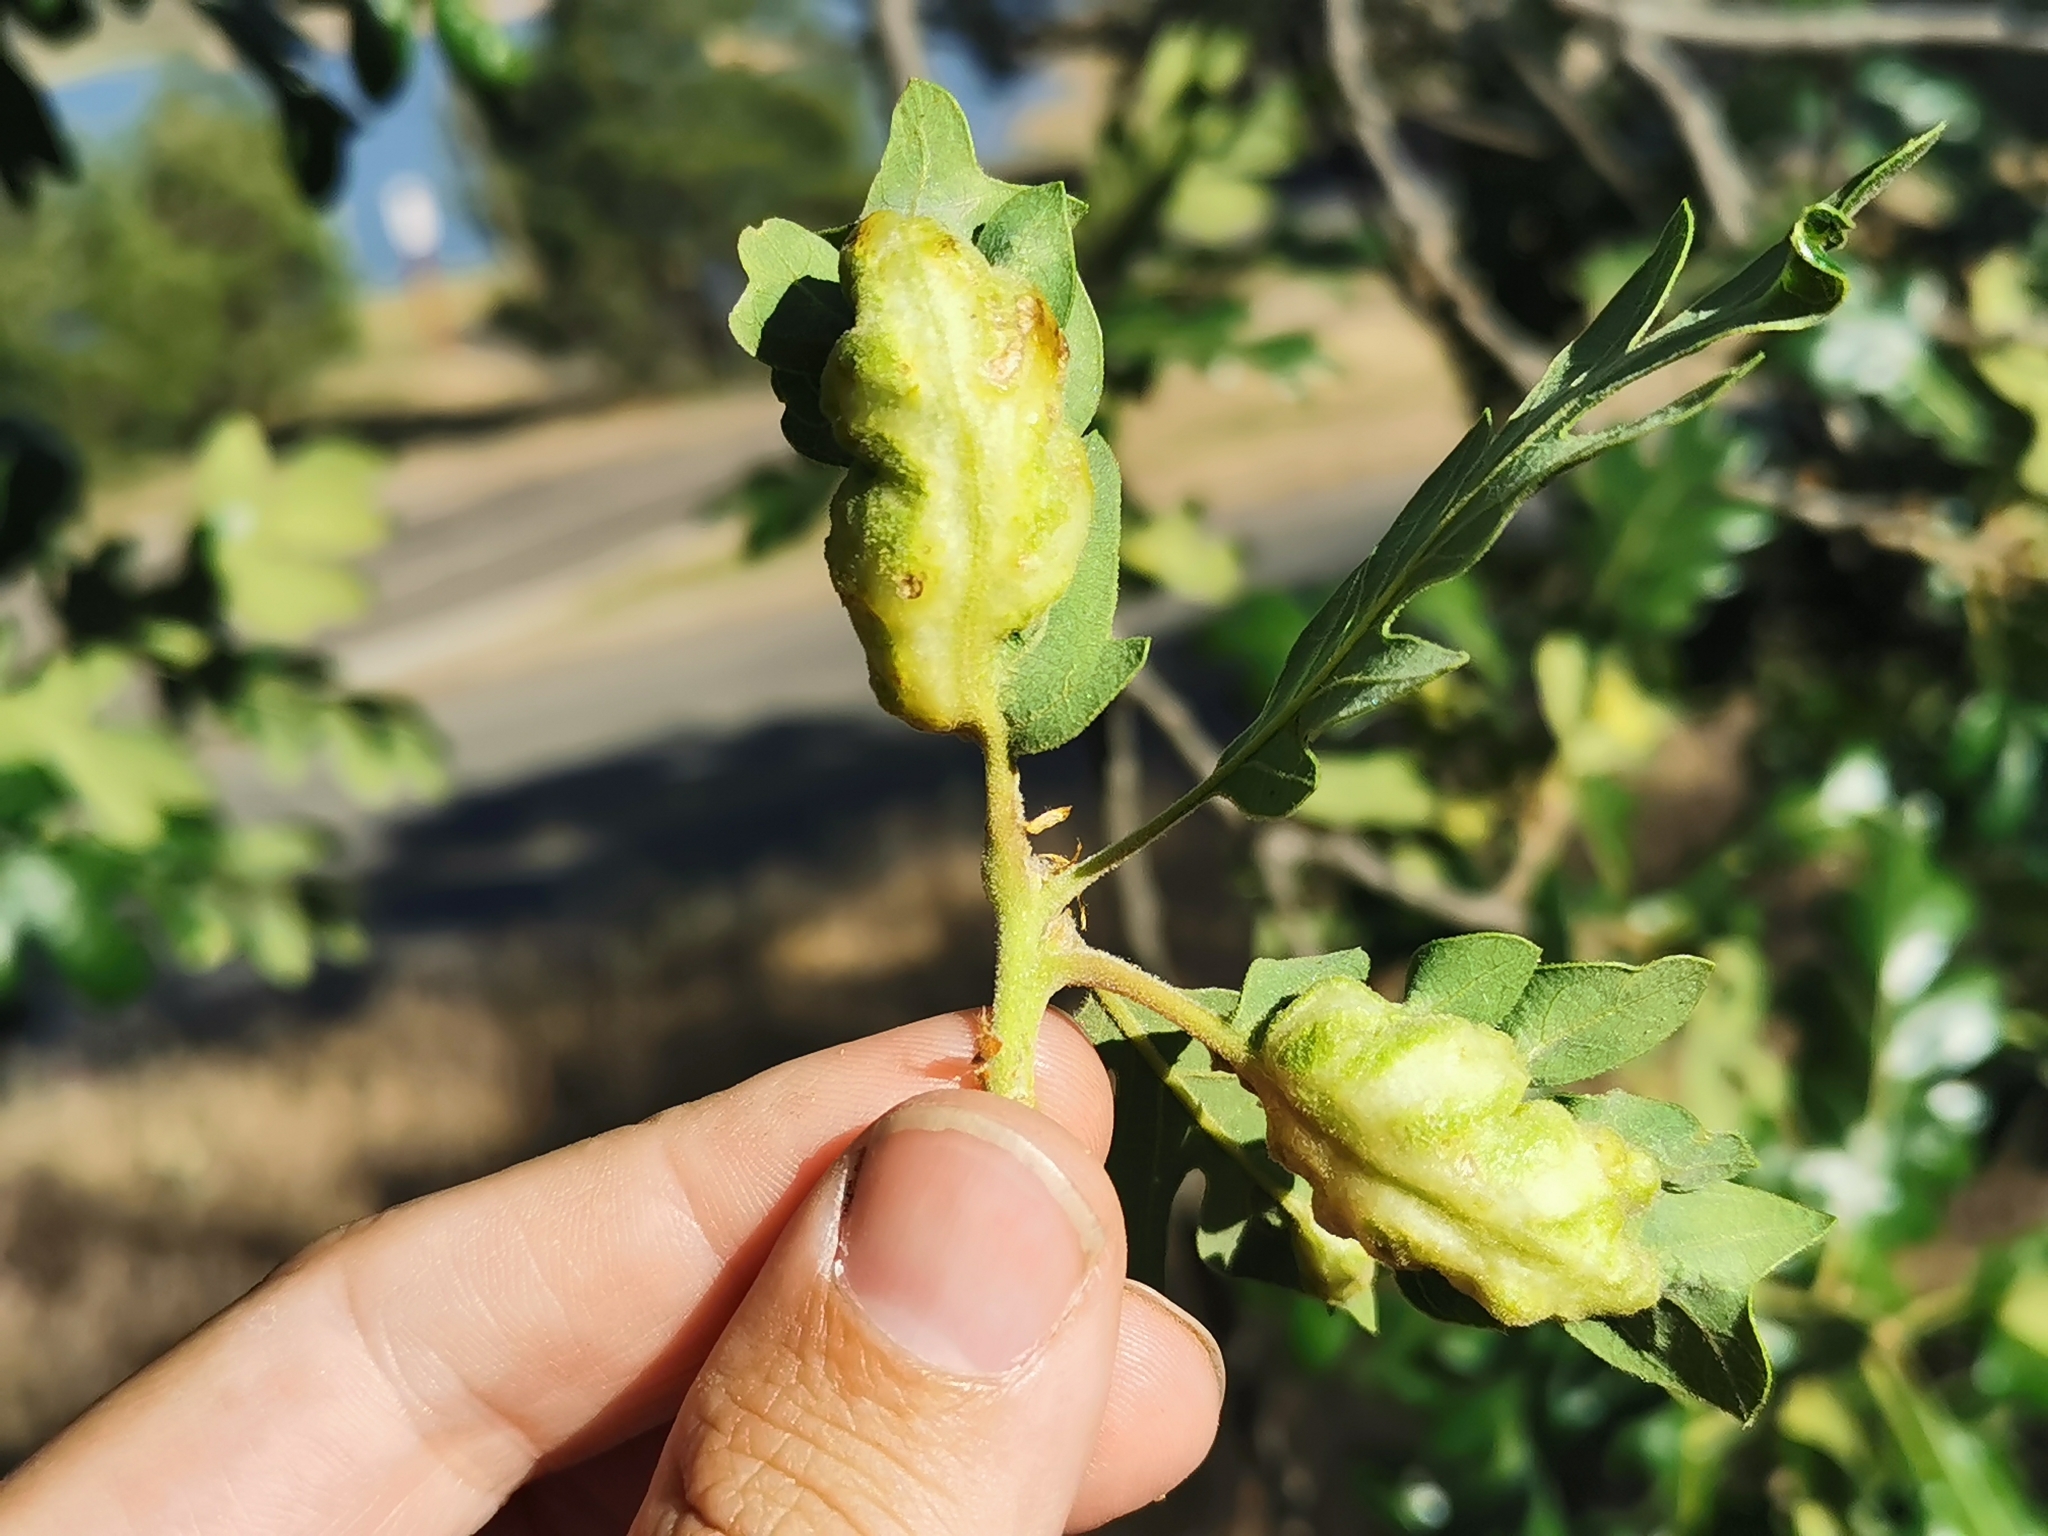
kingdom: Animalia
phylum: Arthropoda
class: Insecta
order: Hymenoptera
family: Cynipidae
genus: Neuroterus
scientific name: Neuroterus
